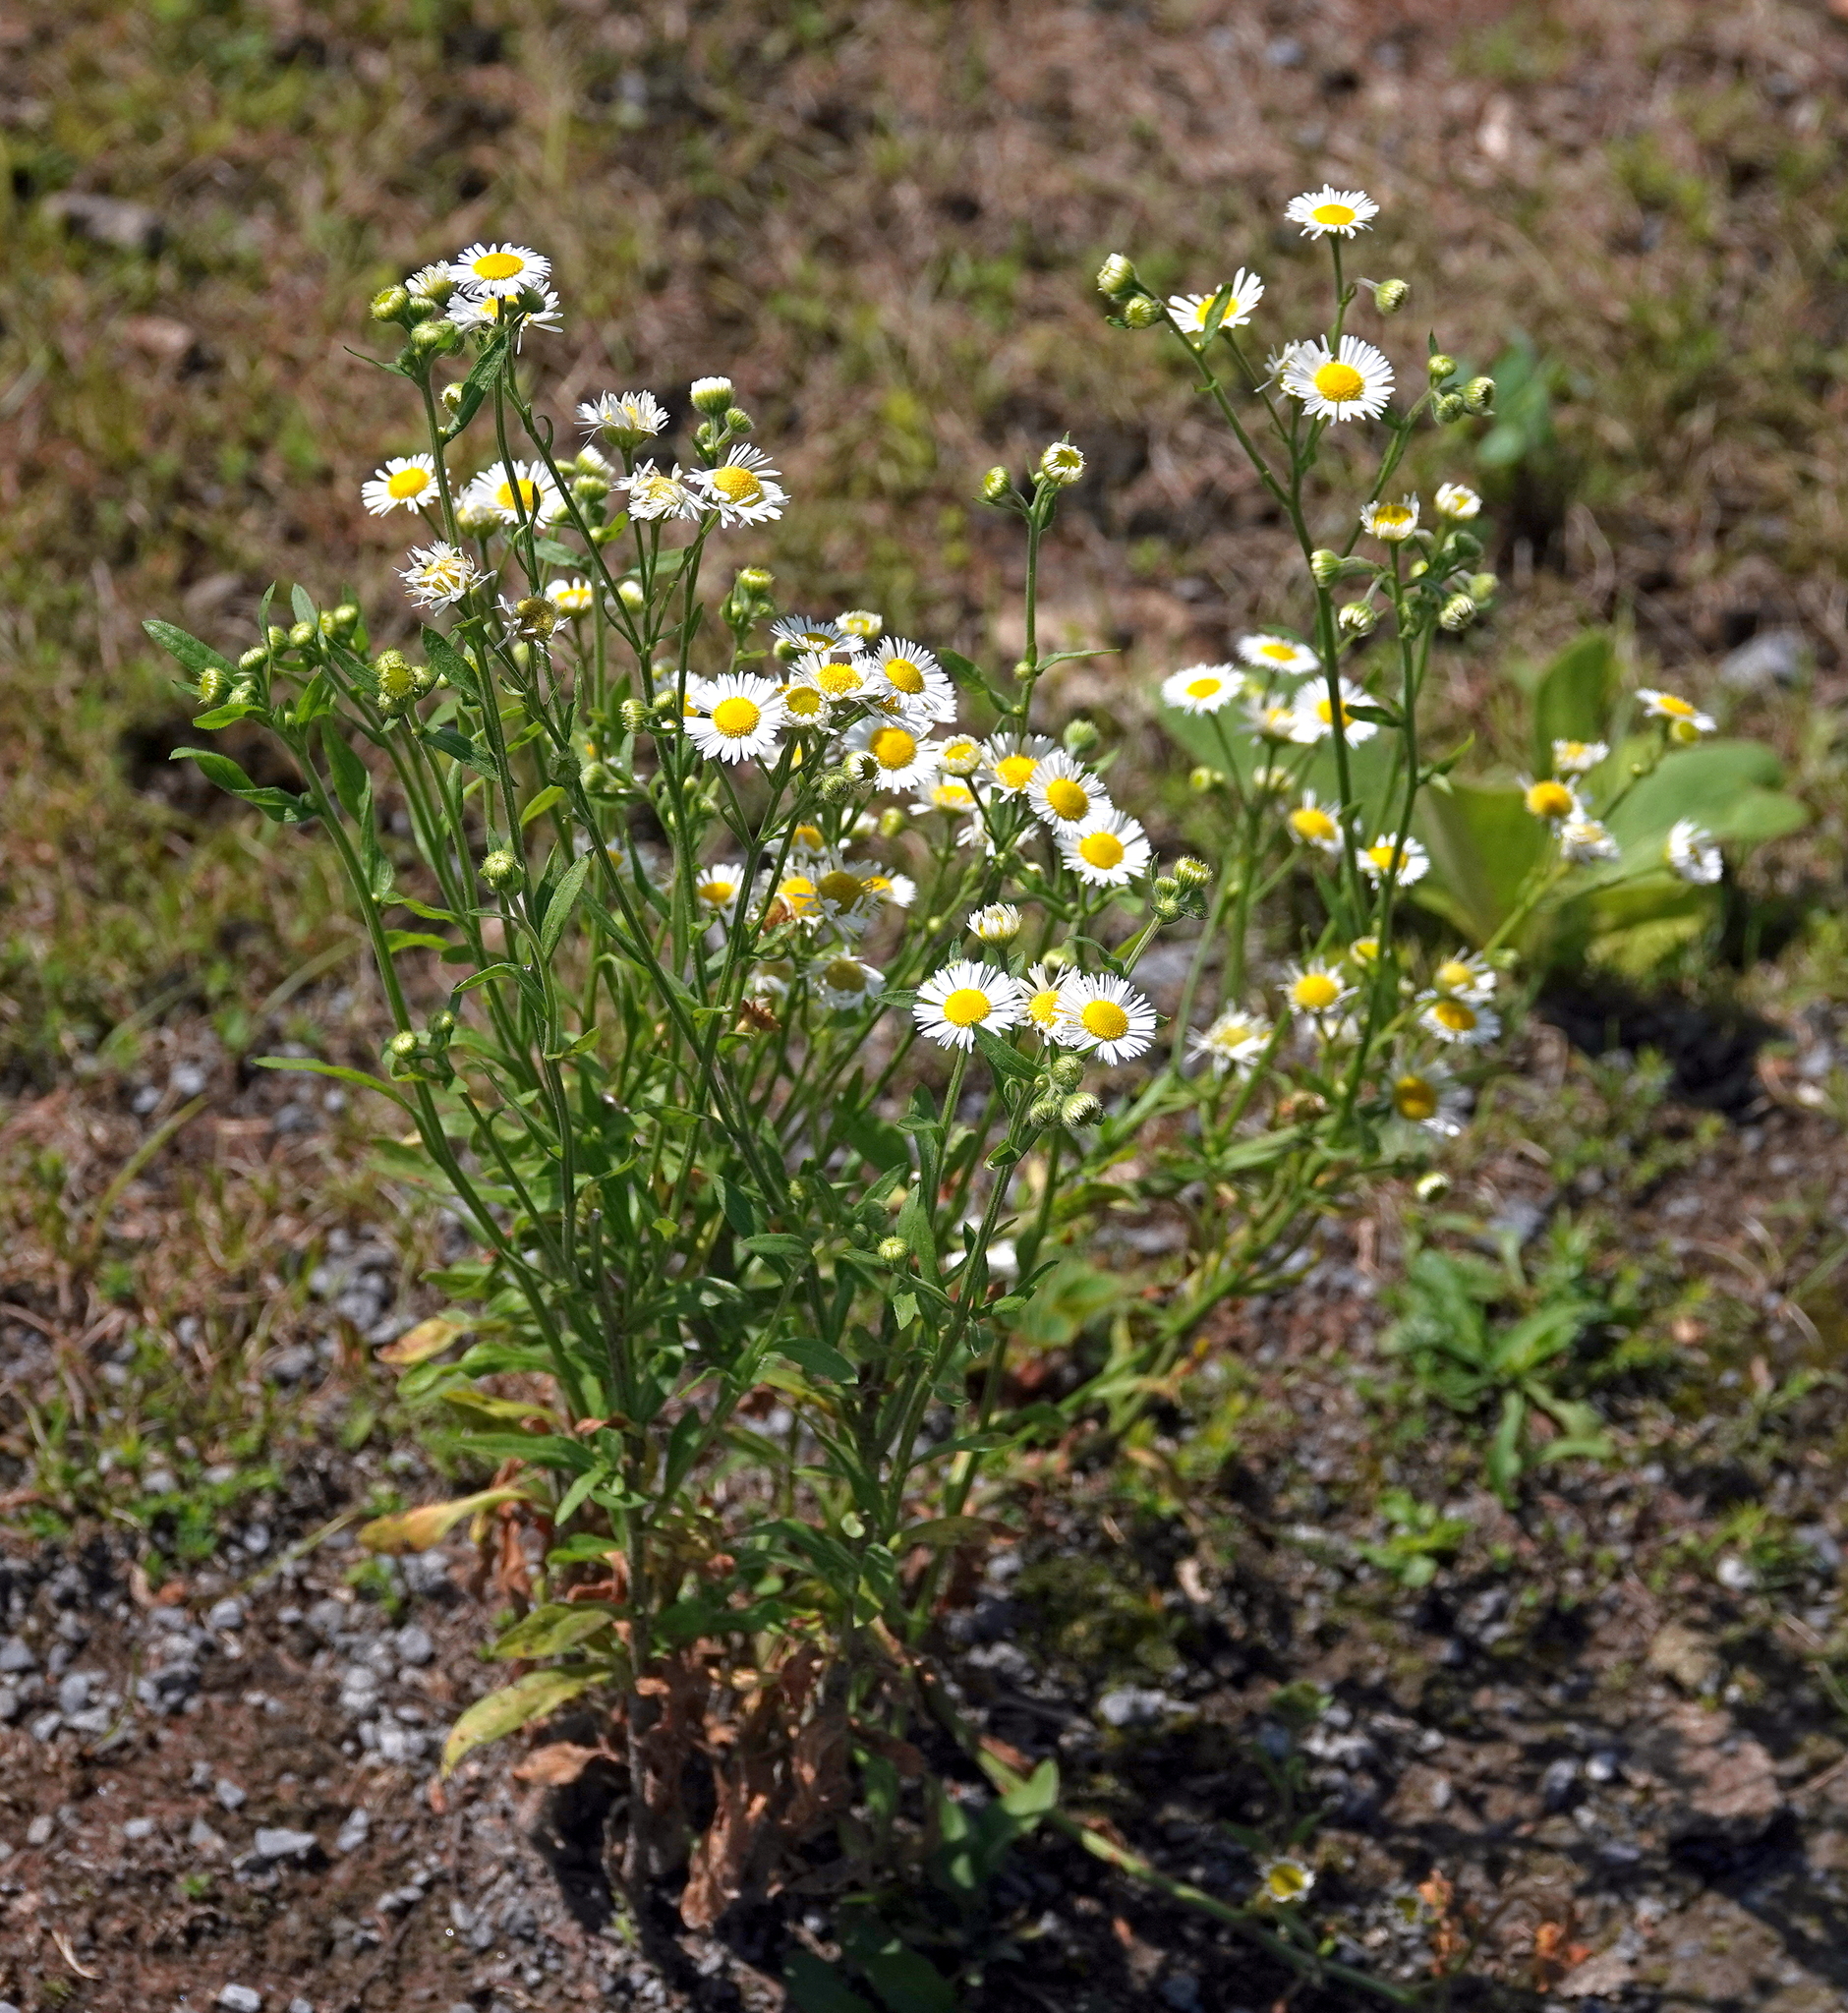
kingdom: Plantae
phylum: Tracheophyta
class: Magnoliopsida
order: Asterales
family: Asteraceae
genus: Erigeron
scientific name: Erigeron strigosus
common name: Common eastern fleabane
